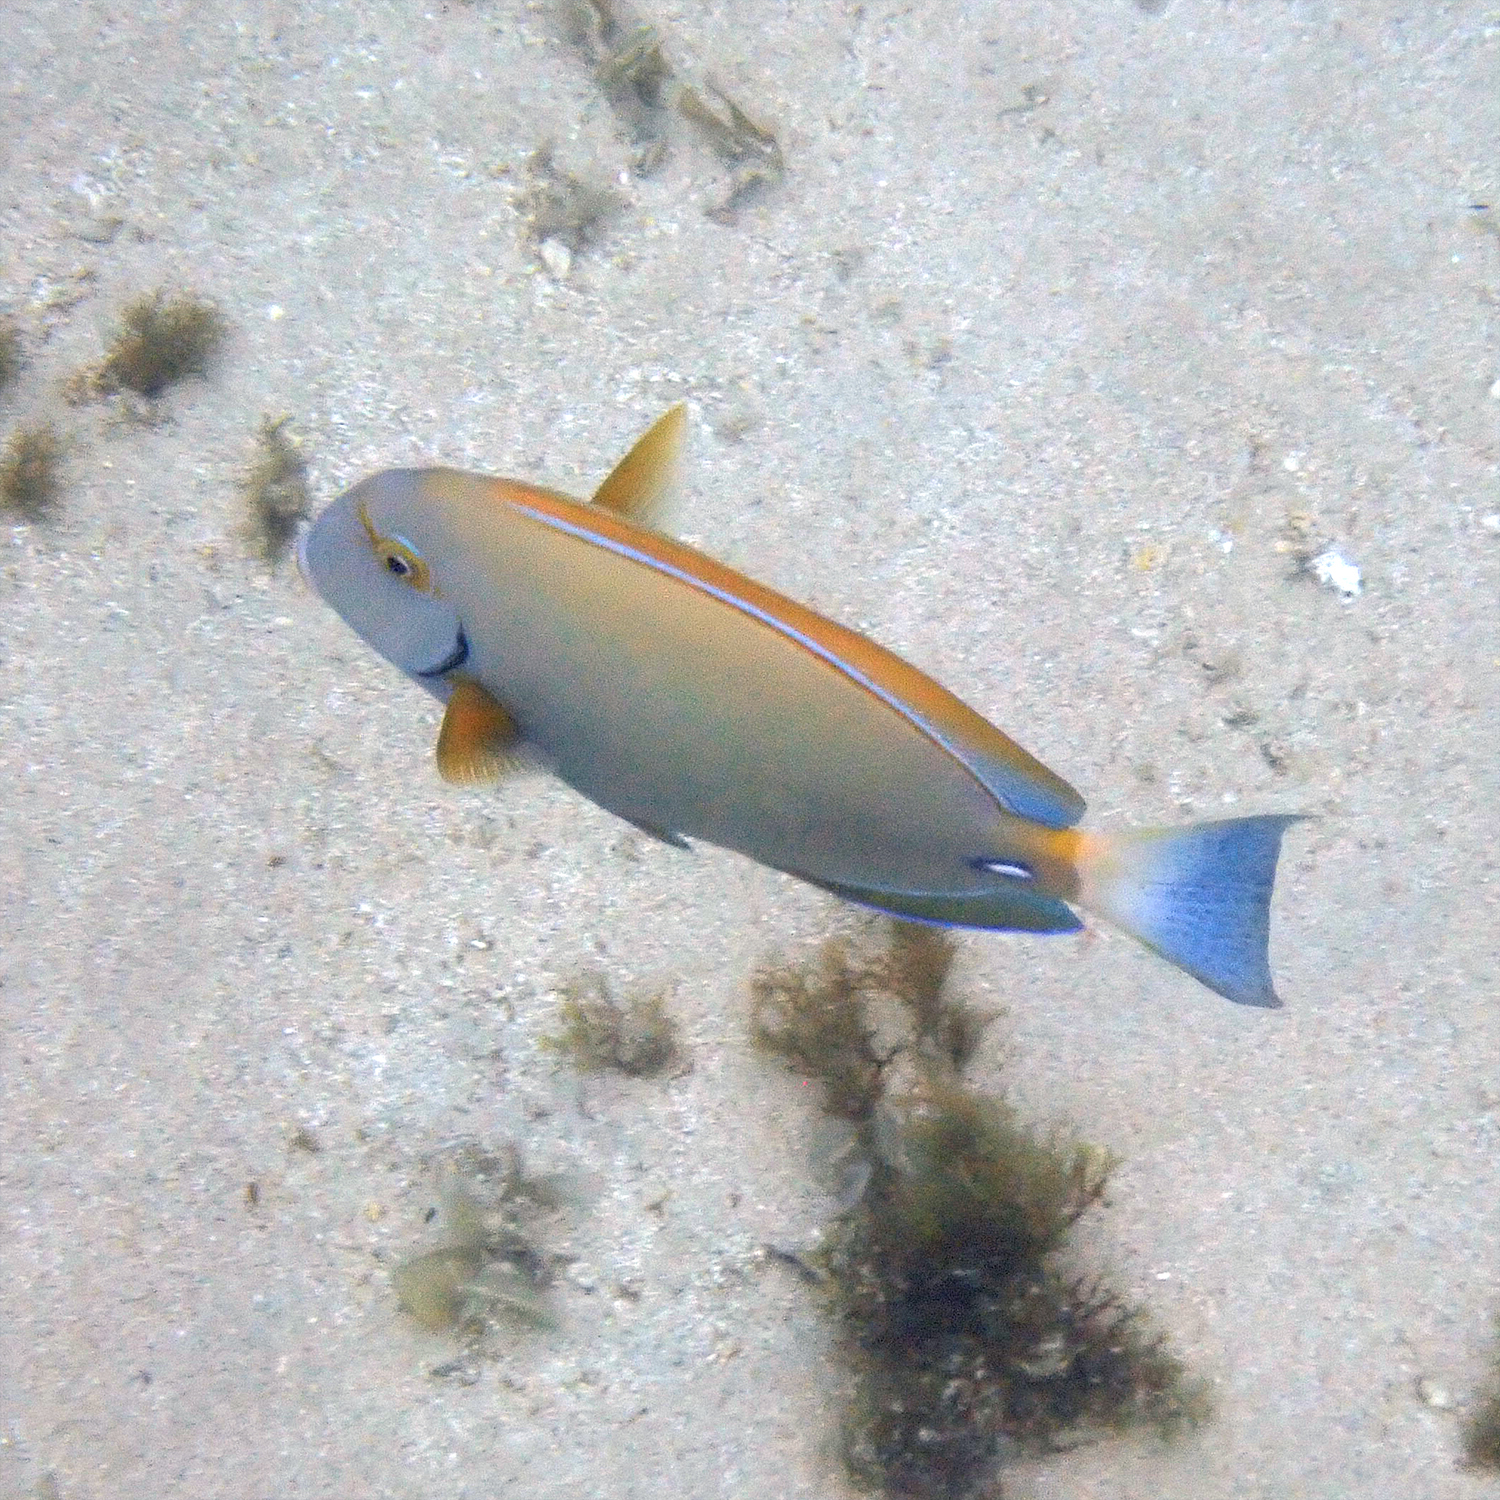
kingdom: Animalia
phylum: Chordata
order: Perciformes
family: Acanthuridae
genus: Acanthurus
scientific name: Acanthurus dussumieri
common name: Dussumier's surgeonfish
